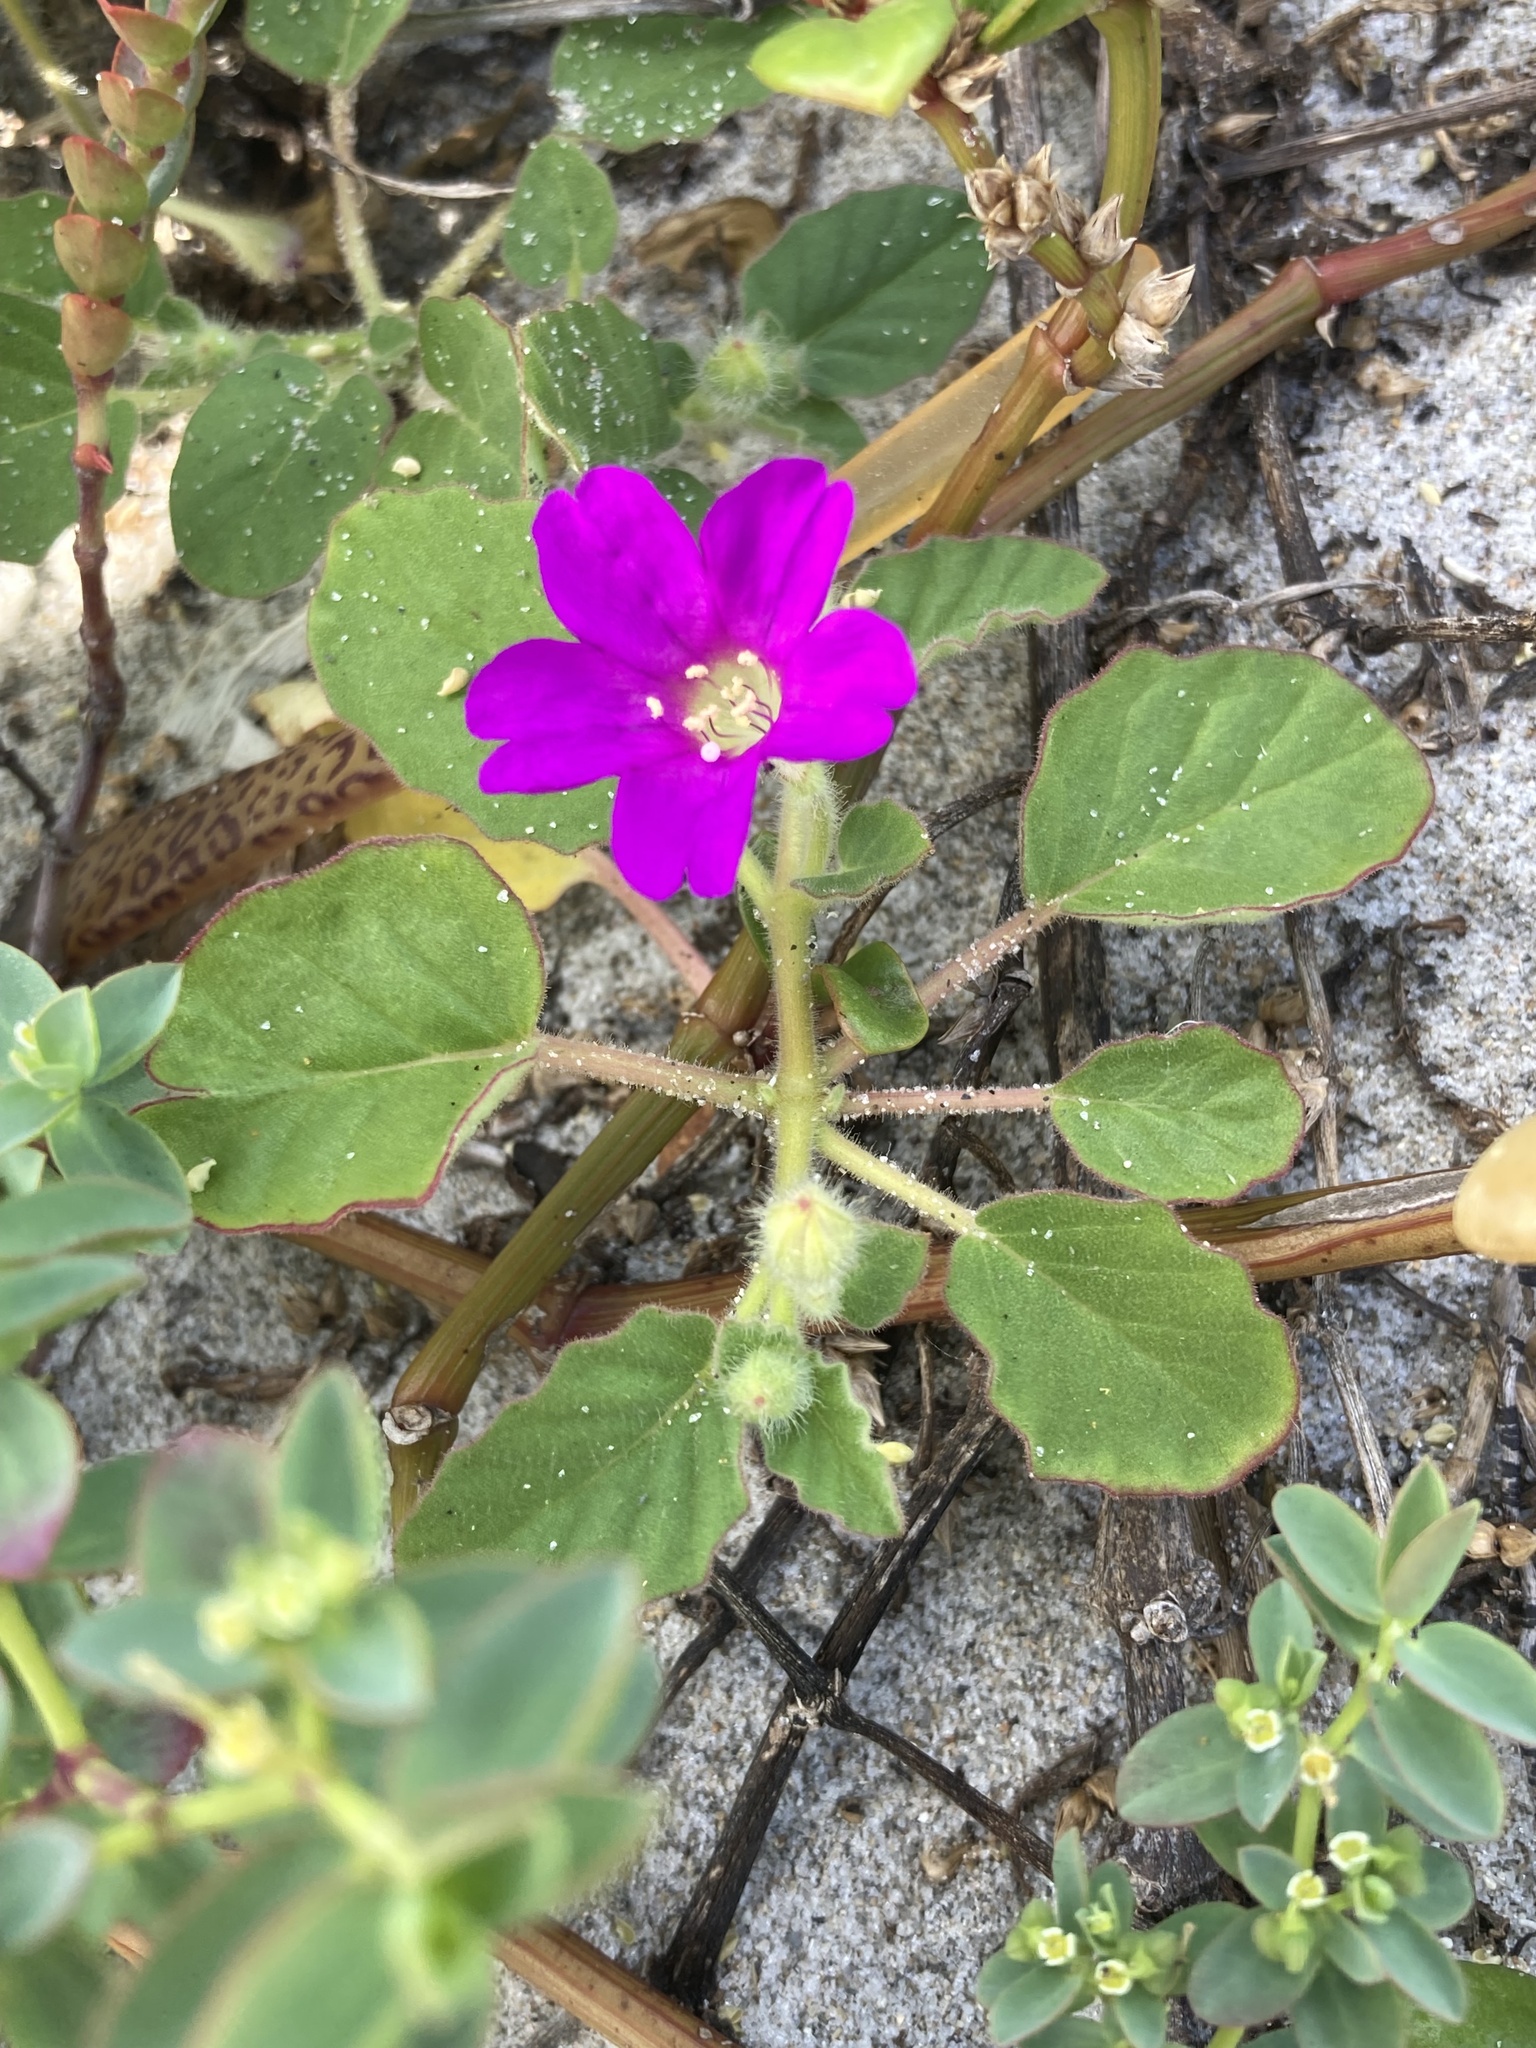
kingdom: Plantae
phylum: Tracheophyta
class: Magnoliopsida
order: Caryophyllales
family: Nyctaginaceae
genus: Okenia
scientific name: Okenia hypogaea
